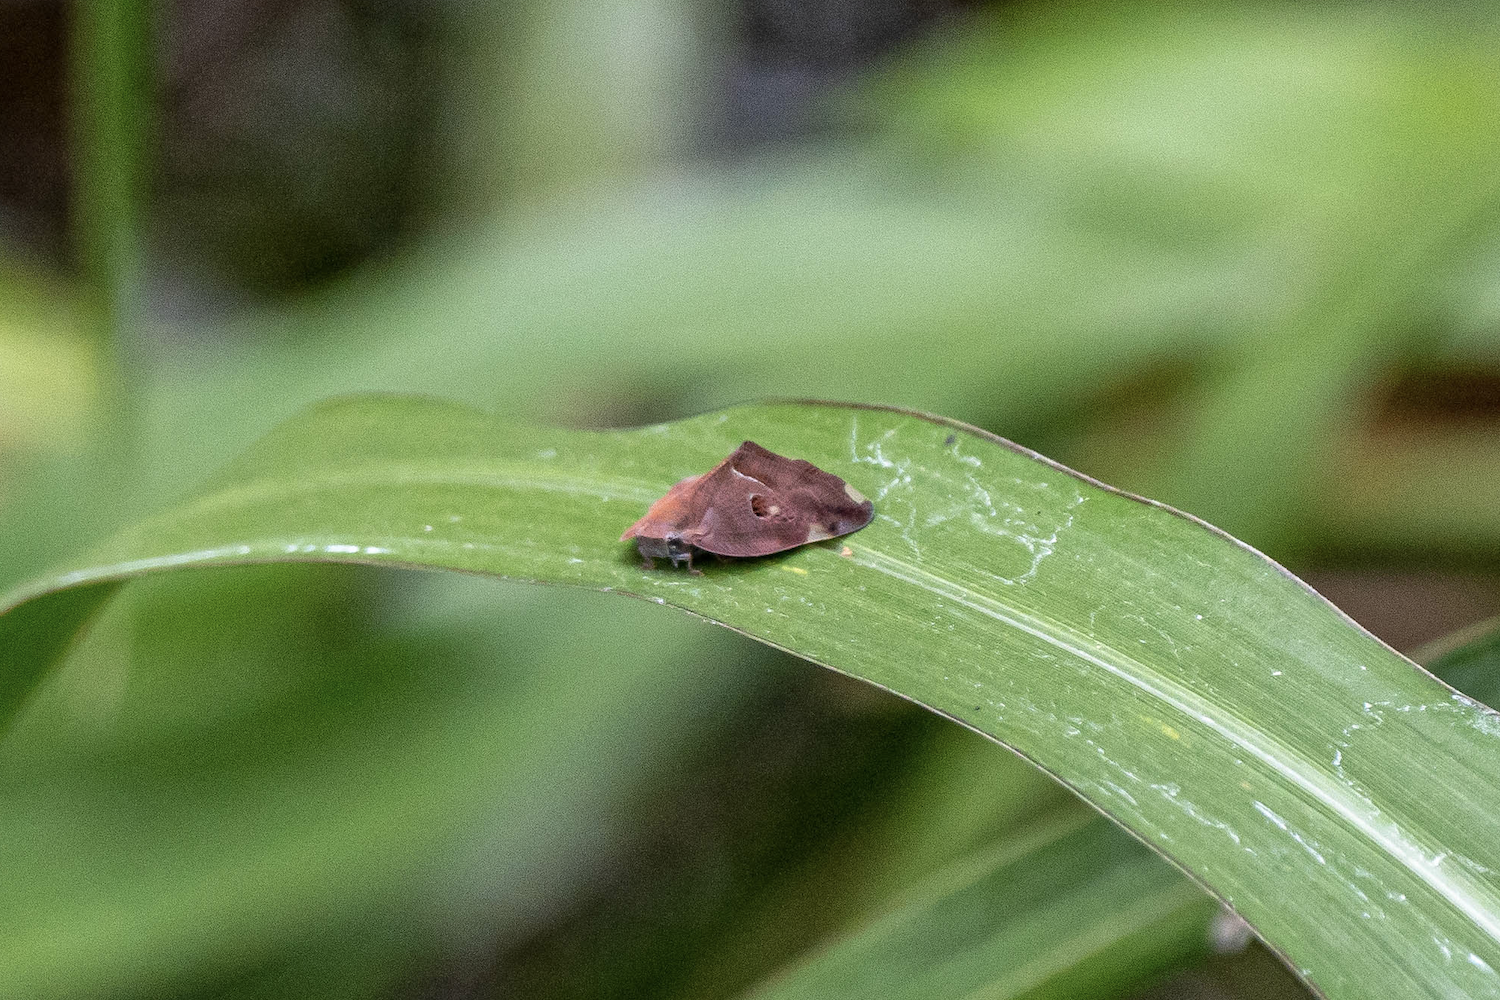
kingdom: Animalia
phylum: Arthropoda
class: Insecta
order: Hemiptera
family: Ricaniidae
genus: Ricania
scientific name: Ricania guttata
